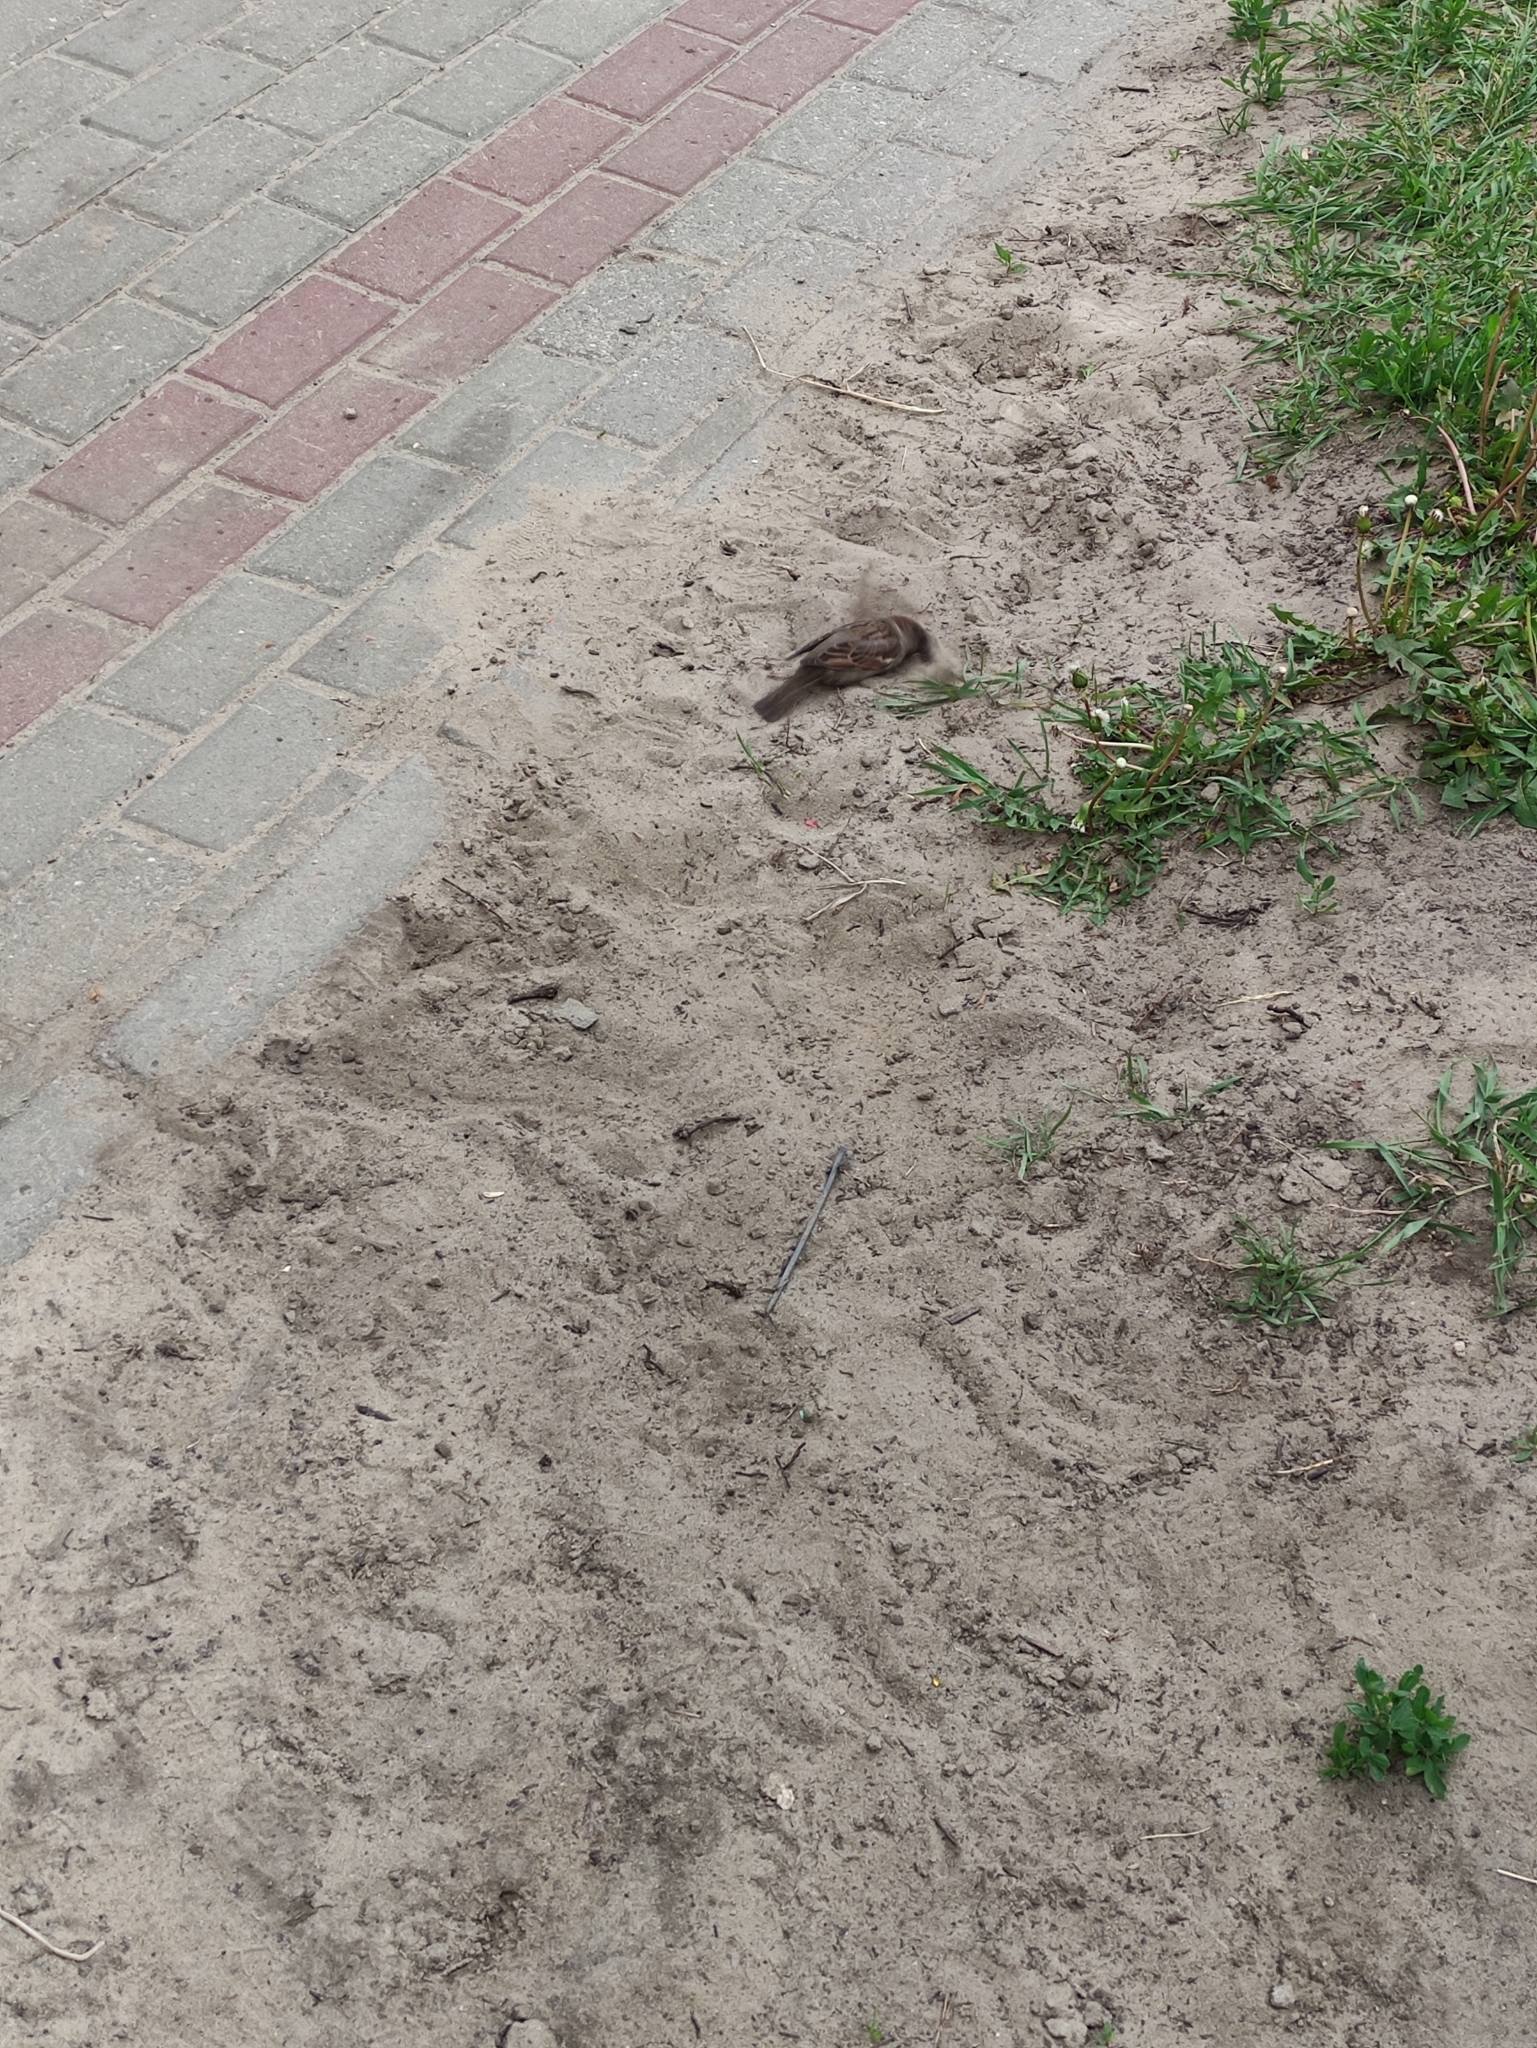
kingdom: Animalia
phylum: Chordata
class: Aves
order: Passeriformes
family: Passeridae
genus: Passer
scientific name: Passer domesticus
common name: House sparrow
